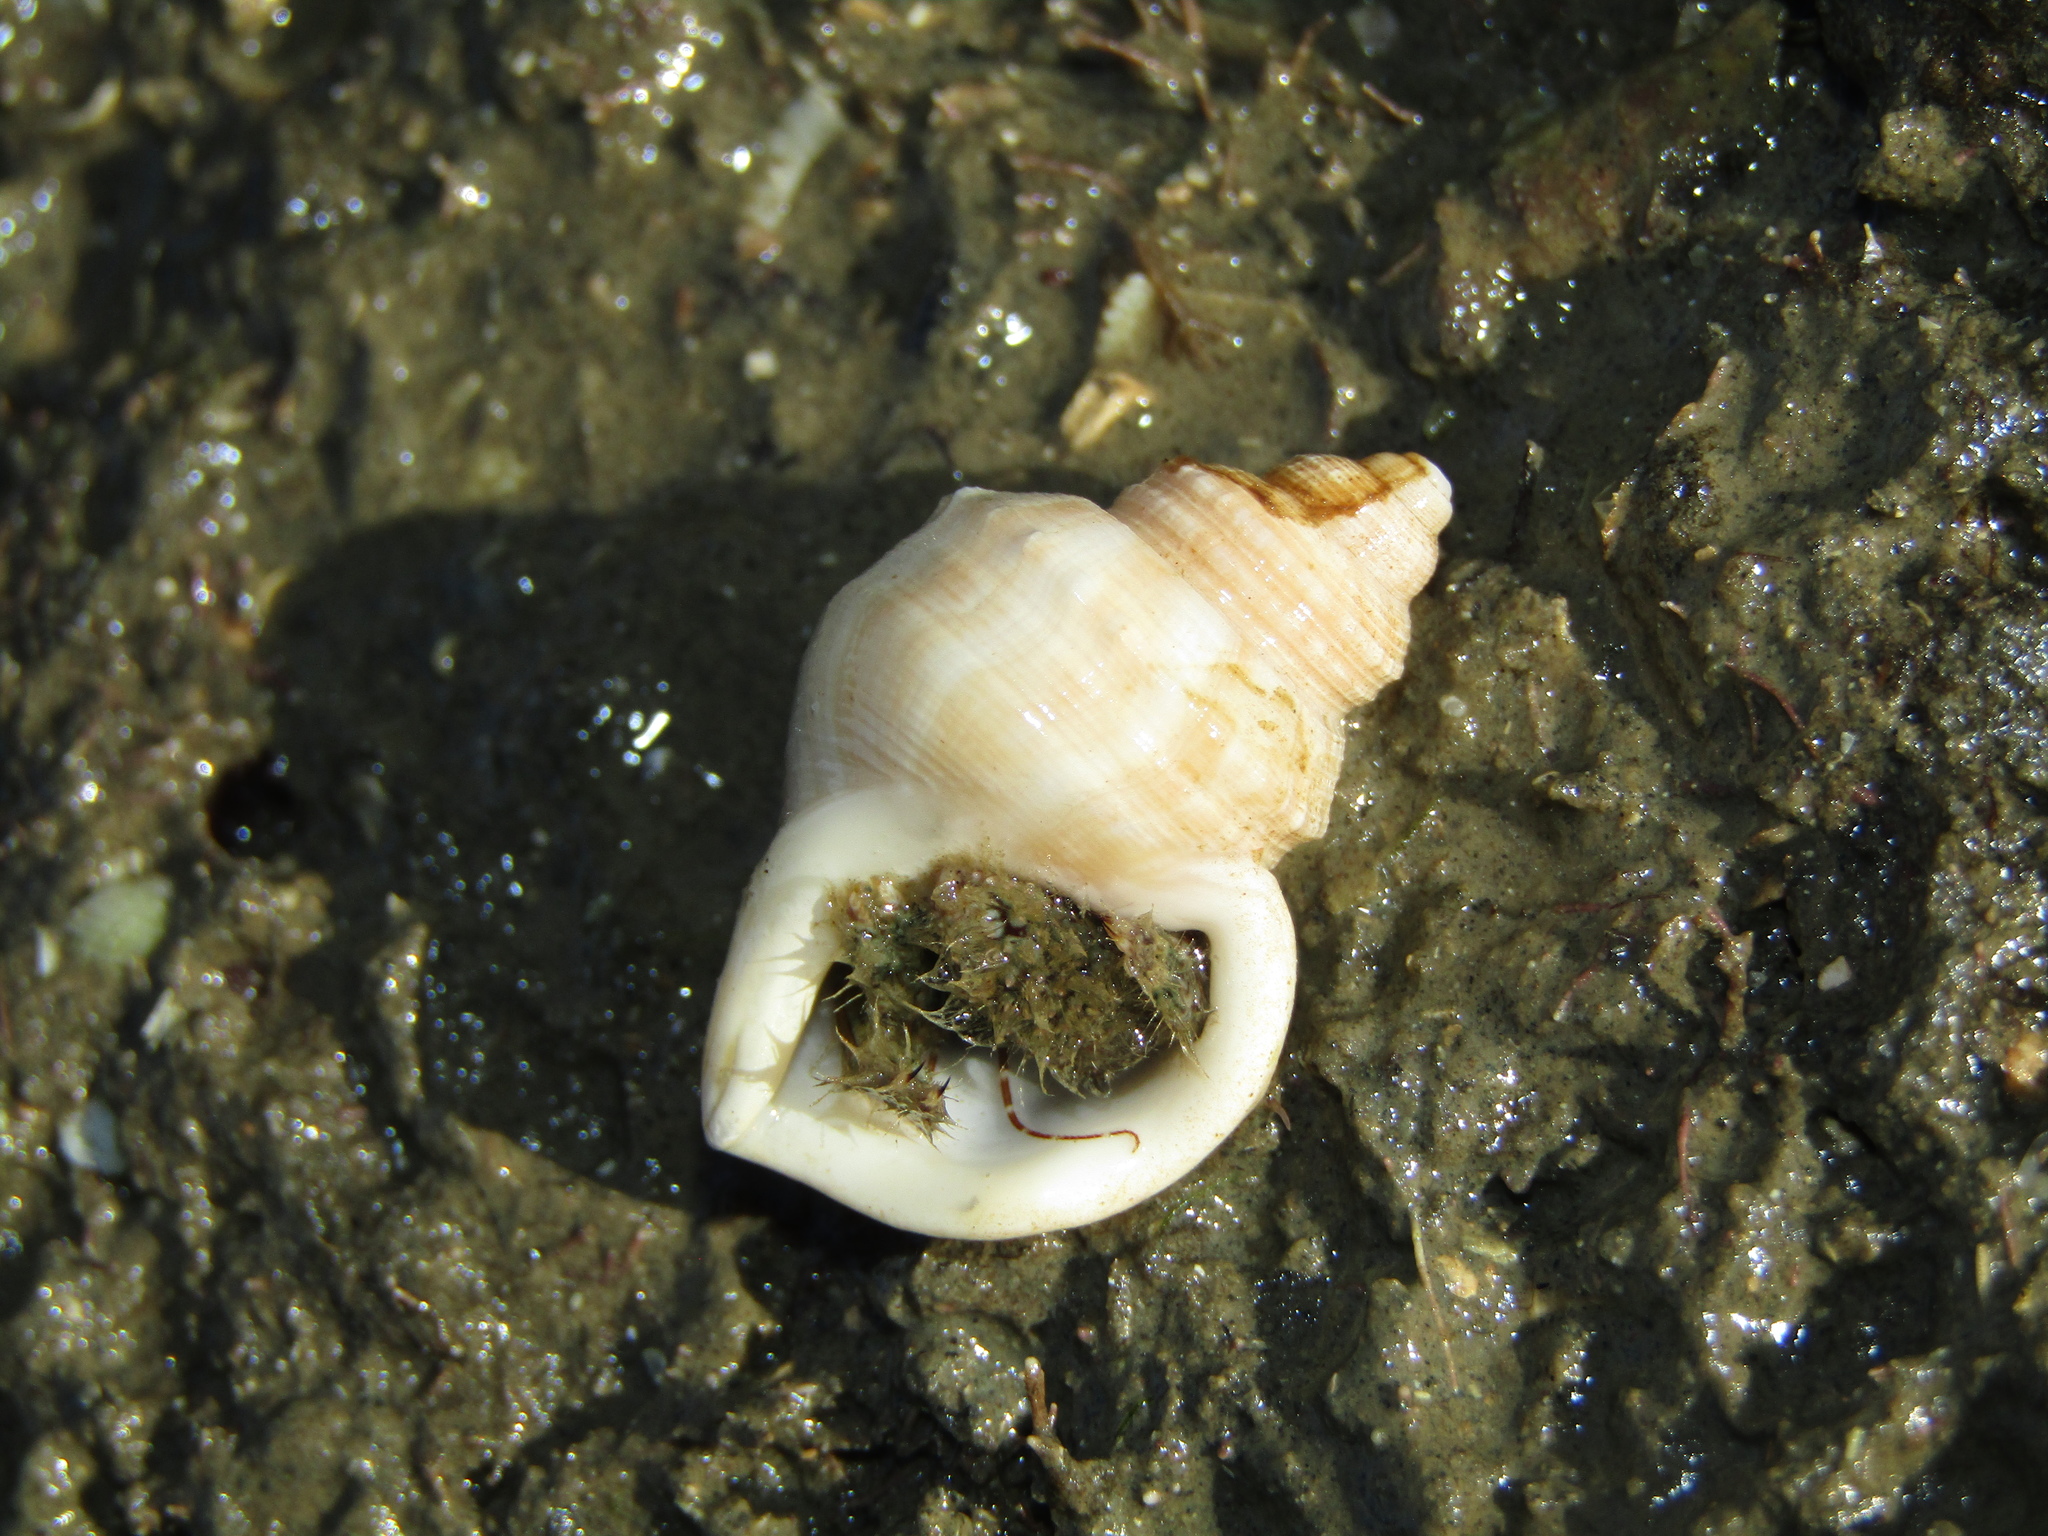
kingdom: Animalia
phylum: Mollusca
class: Gastropoda
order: Littorinimorpha
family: Struthiolariidae
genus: Pelicaria
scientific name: Pelicaria vermis
